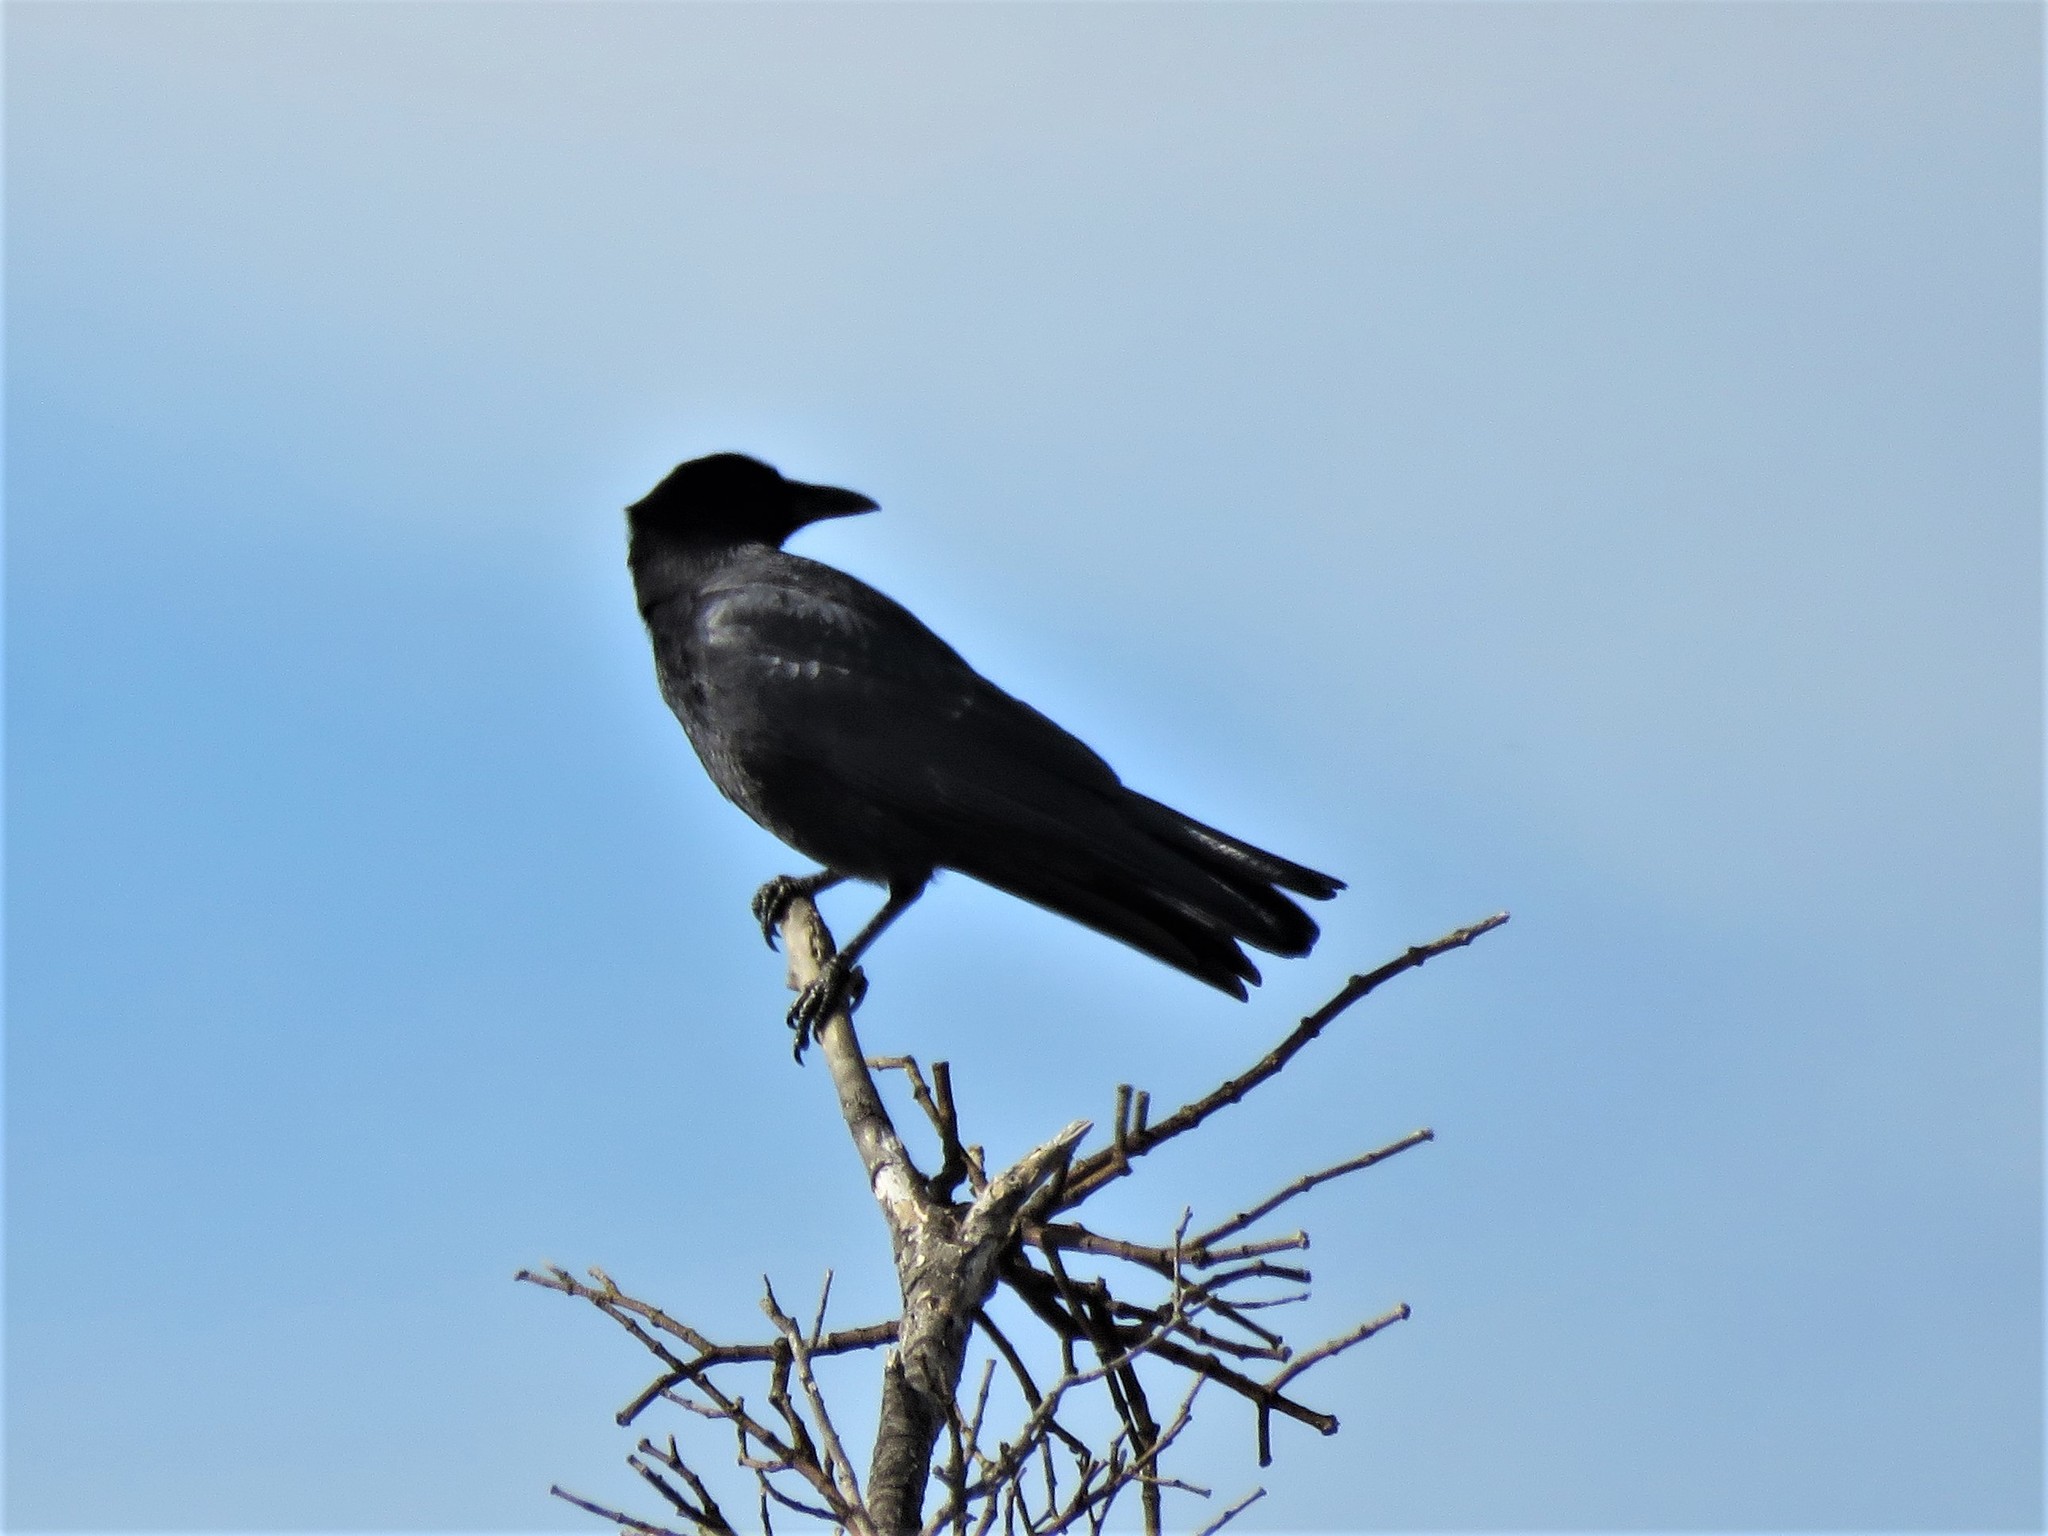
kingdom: Animalia
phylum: Chordata
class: Aves
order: Passeriformes
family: Corvidae
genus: Corvus
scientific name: Corvus brachyrhynchos
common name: American crow
